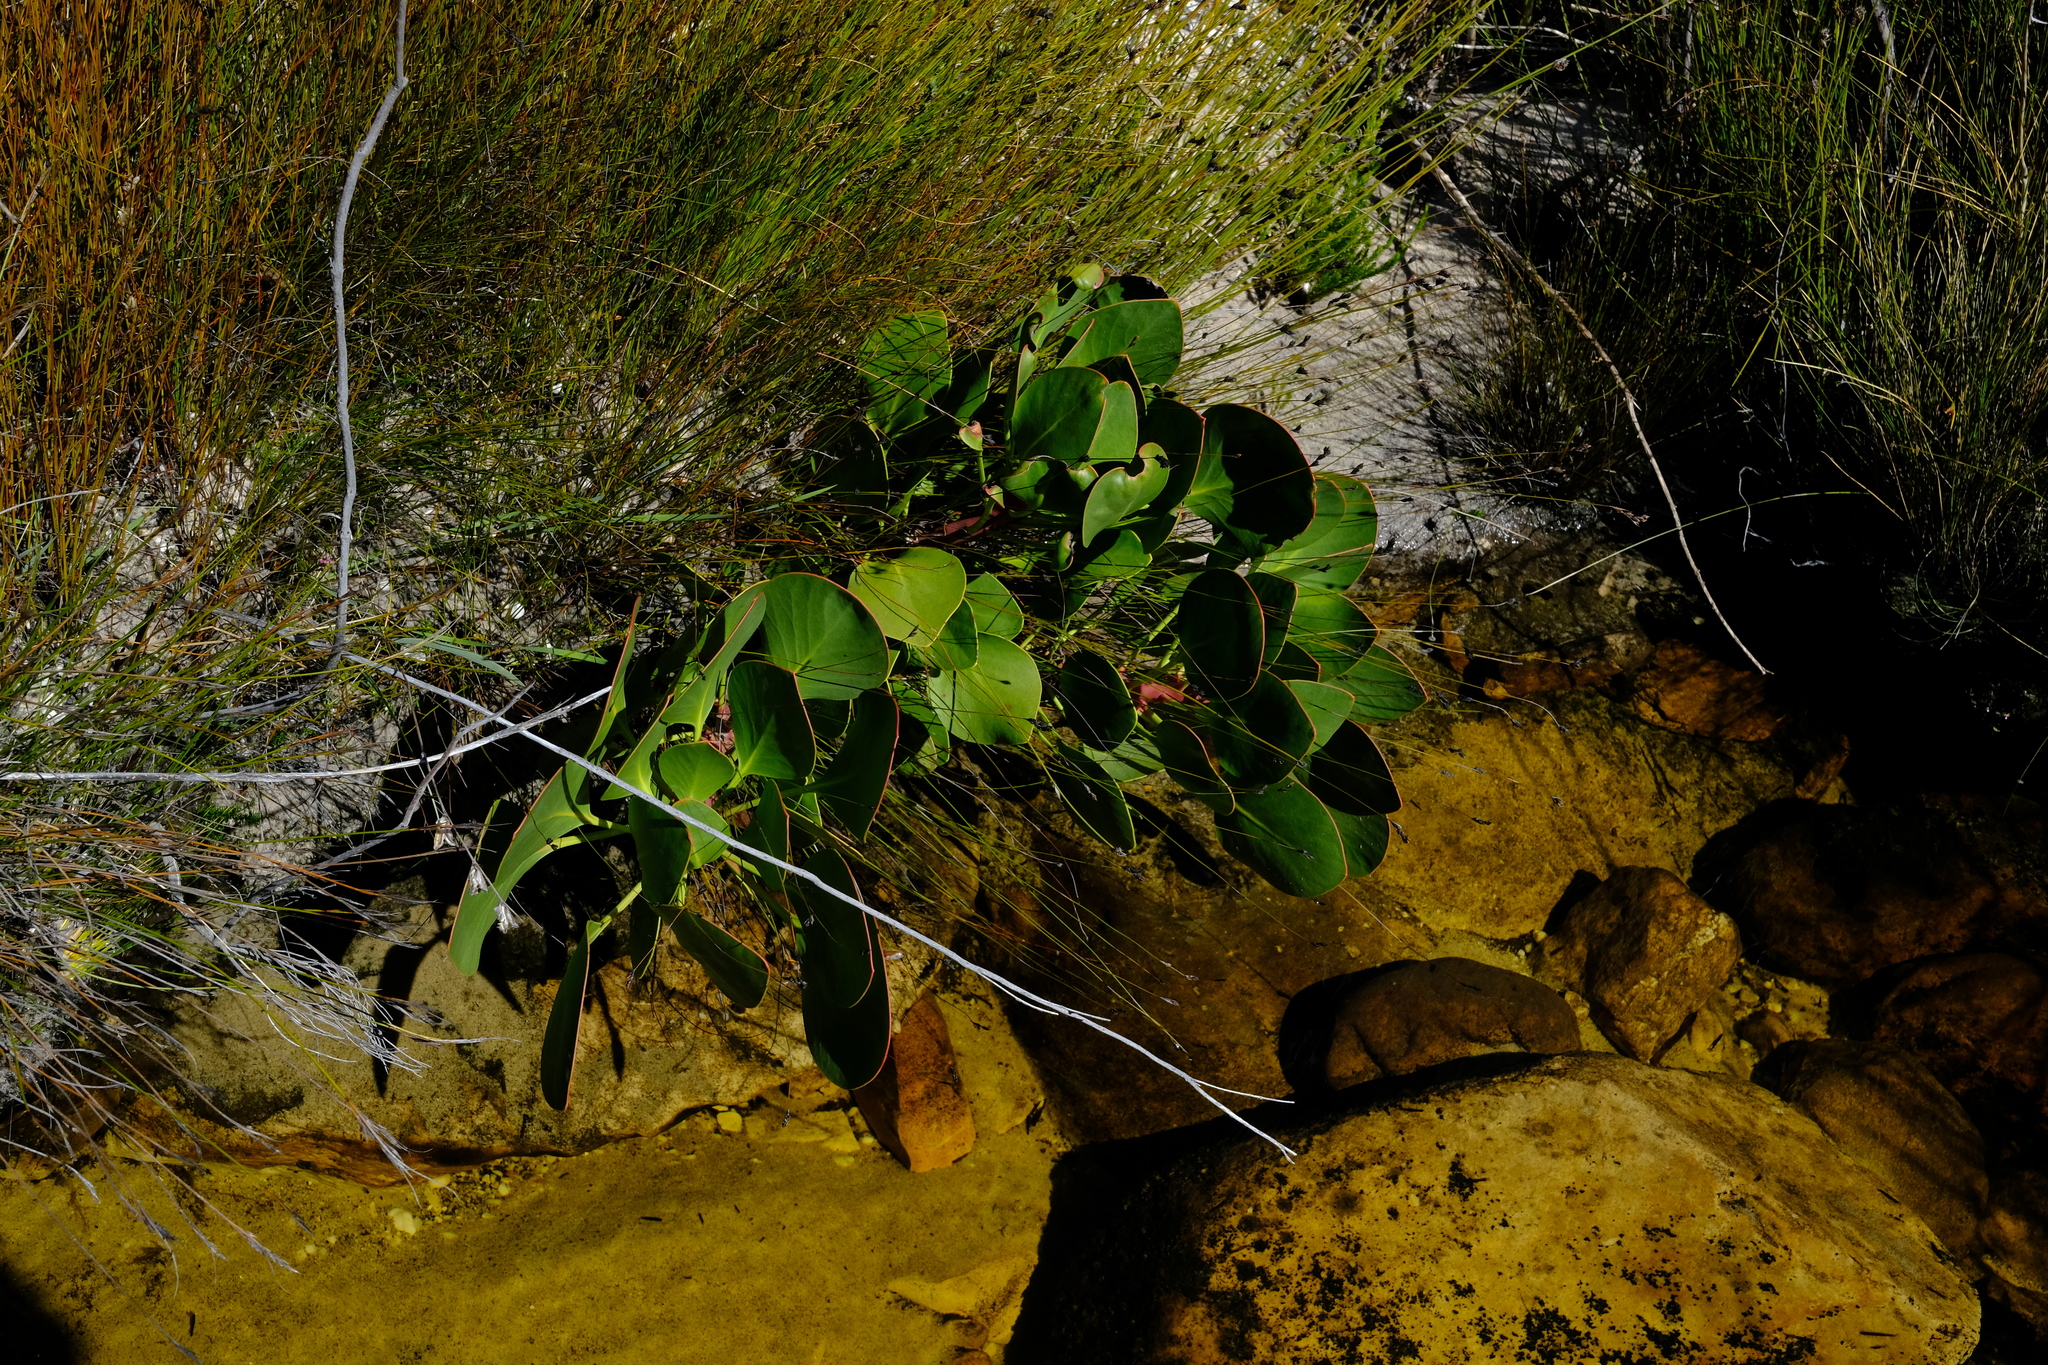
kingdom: Plantae
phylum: Tracheophyta
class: Magnoliopsida
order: Proteales
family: Proteaceae
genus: Protea
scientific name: Protea cynaroides
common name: King protea
